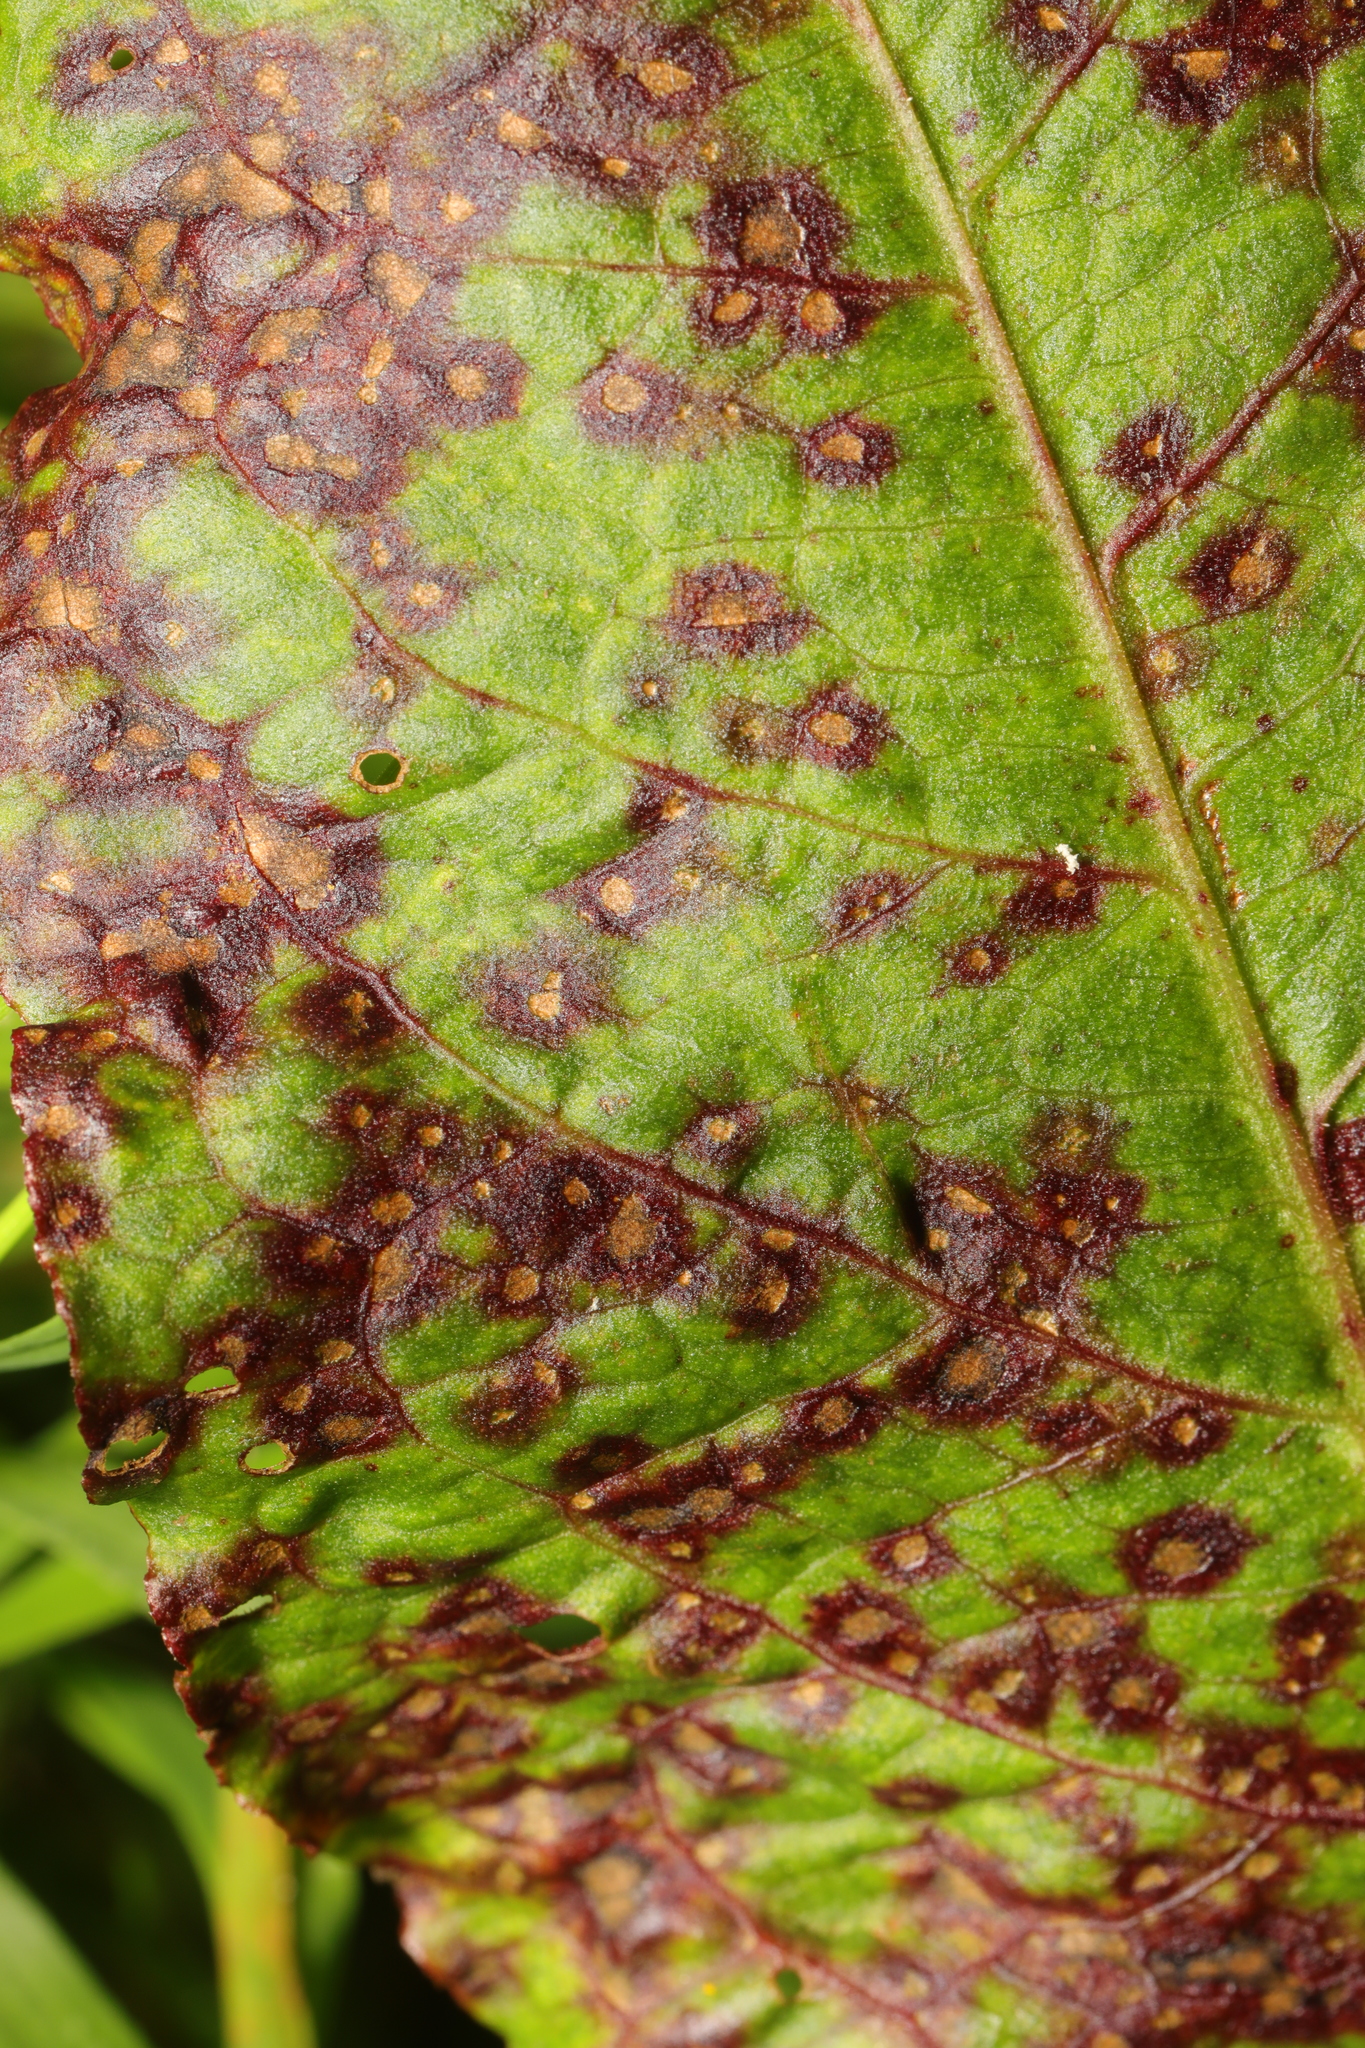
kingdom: Fungi
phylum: Ascomycota
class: Dothideomycetes
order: Mycosphaerellales
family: Mycosphaerellaceae
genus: Ramularia
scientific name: Ramularia rubella
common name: Red dock spot
